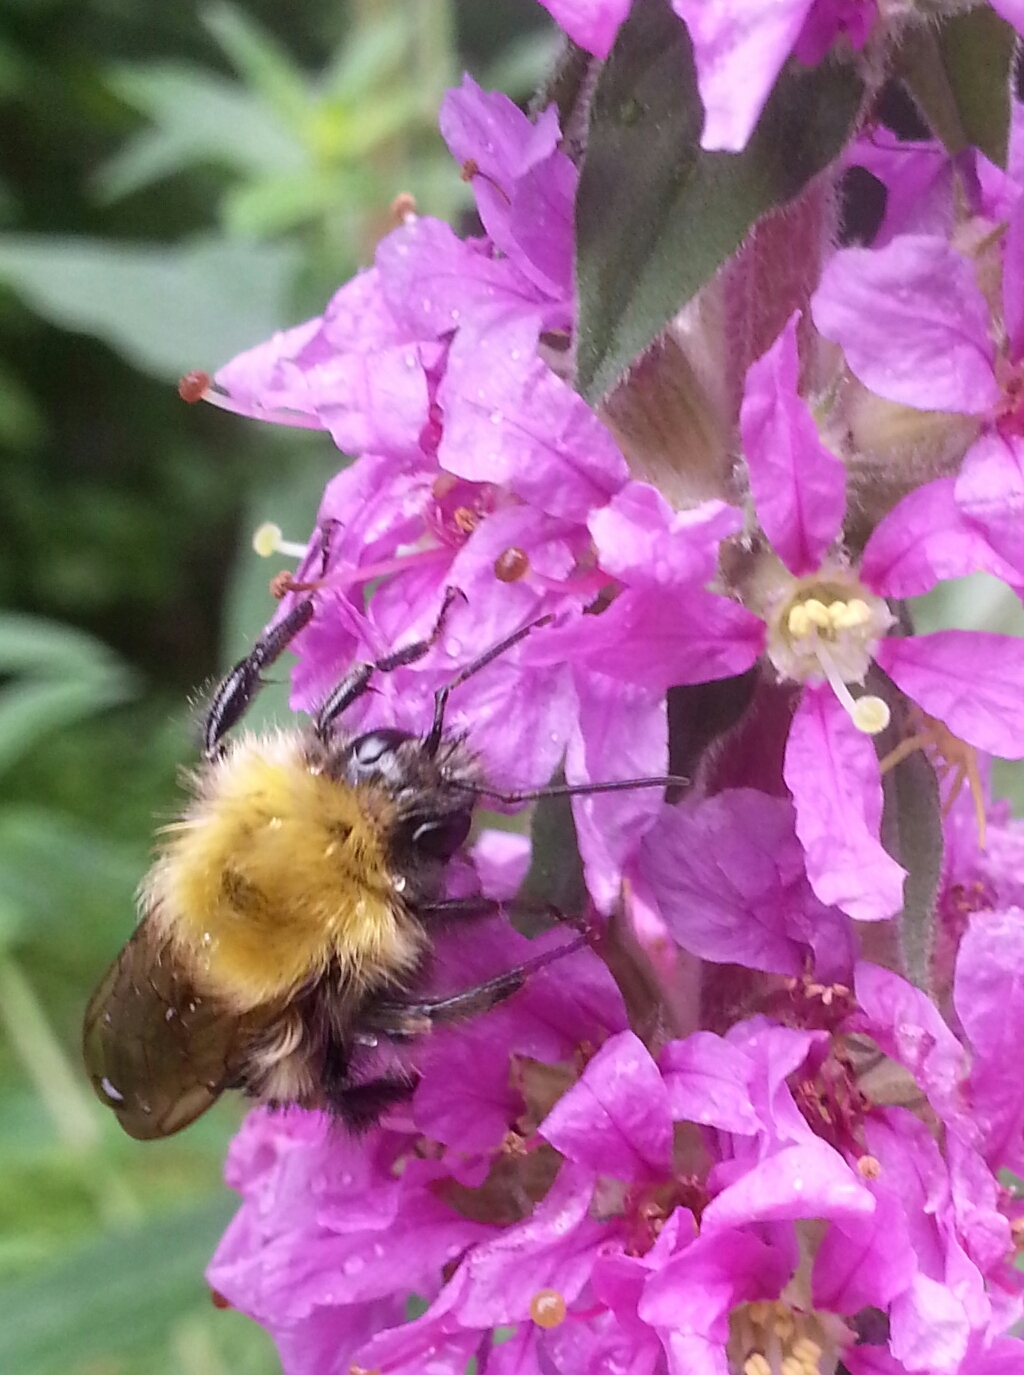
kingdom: Animalia
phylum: Arthropoda
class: Insecta
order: Hymenoptera
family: Apidae
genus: Pyrobombus
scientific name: Pyrobombus
